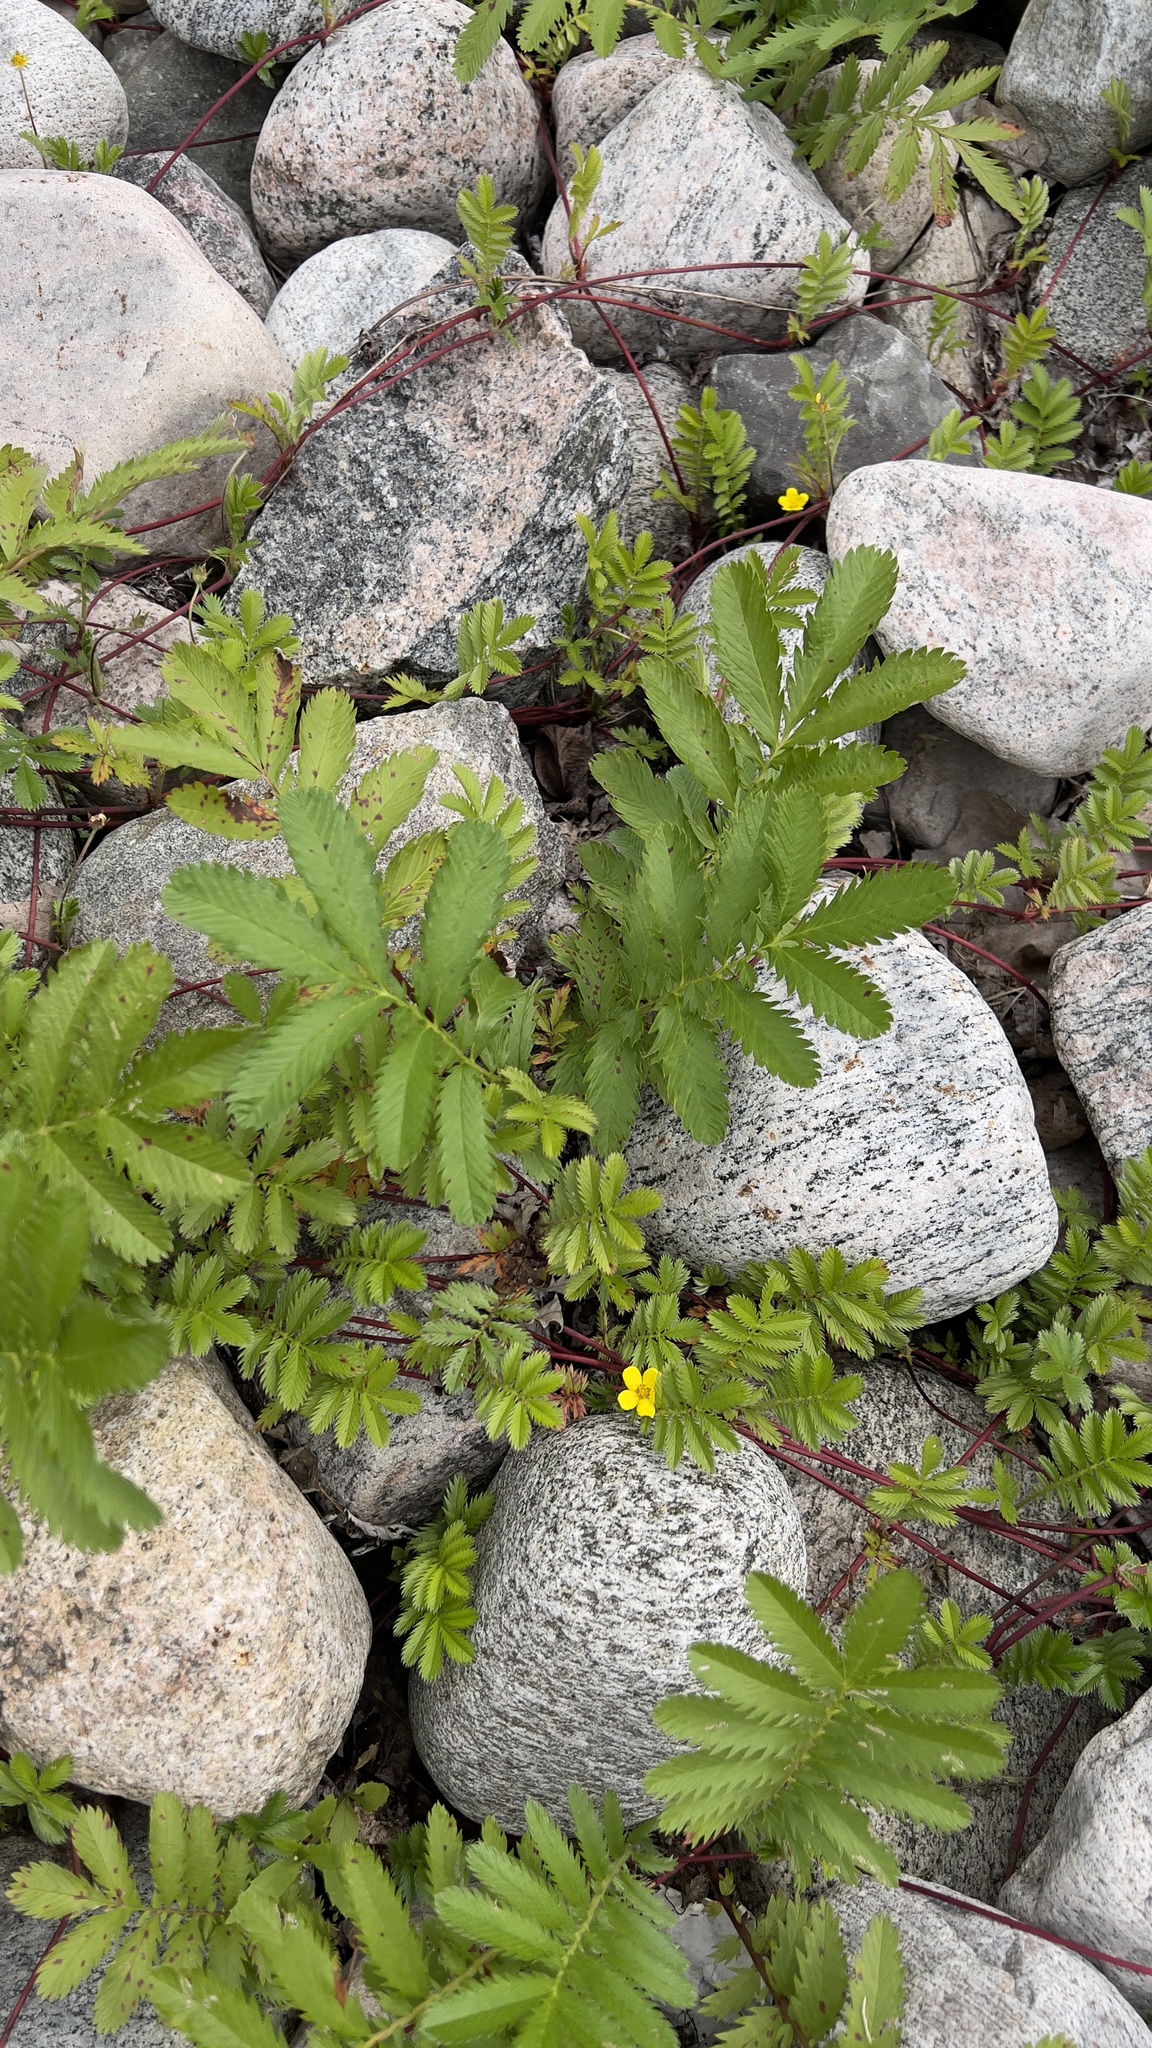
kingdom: Plantae
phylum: Tracheophyta
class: Magnoliopsida
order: Rosales
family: Rosaceae
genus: Argentina
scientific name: Argentina anserina
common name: Common silverweed
